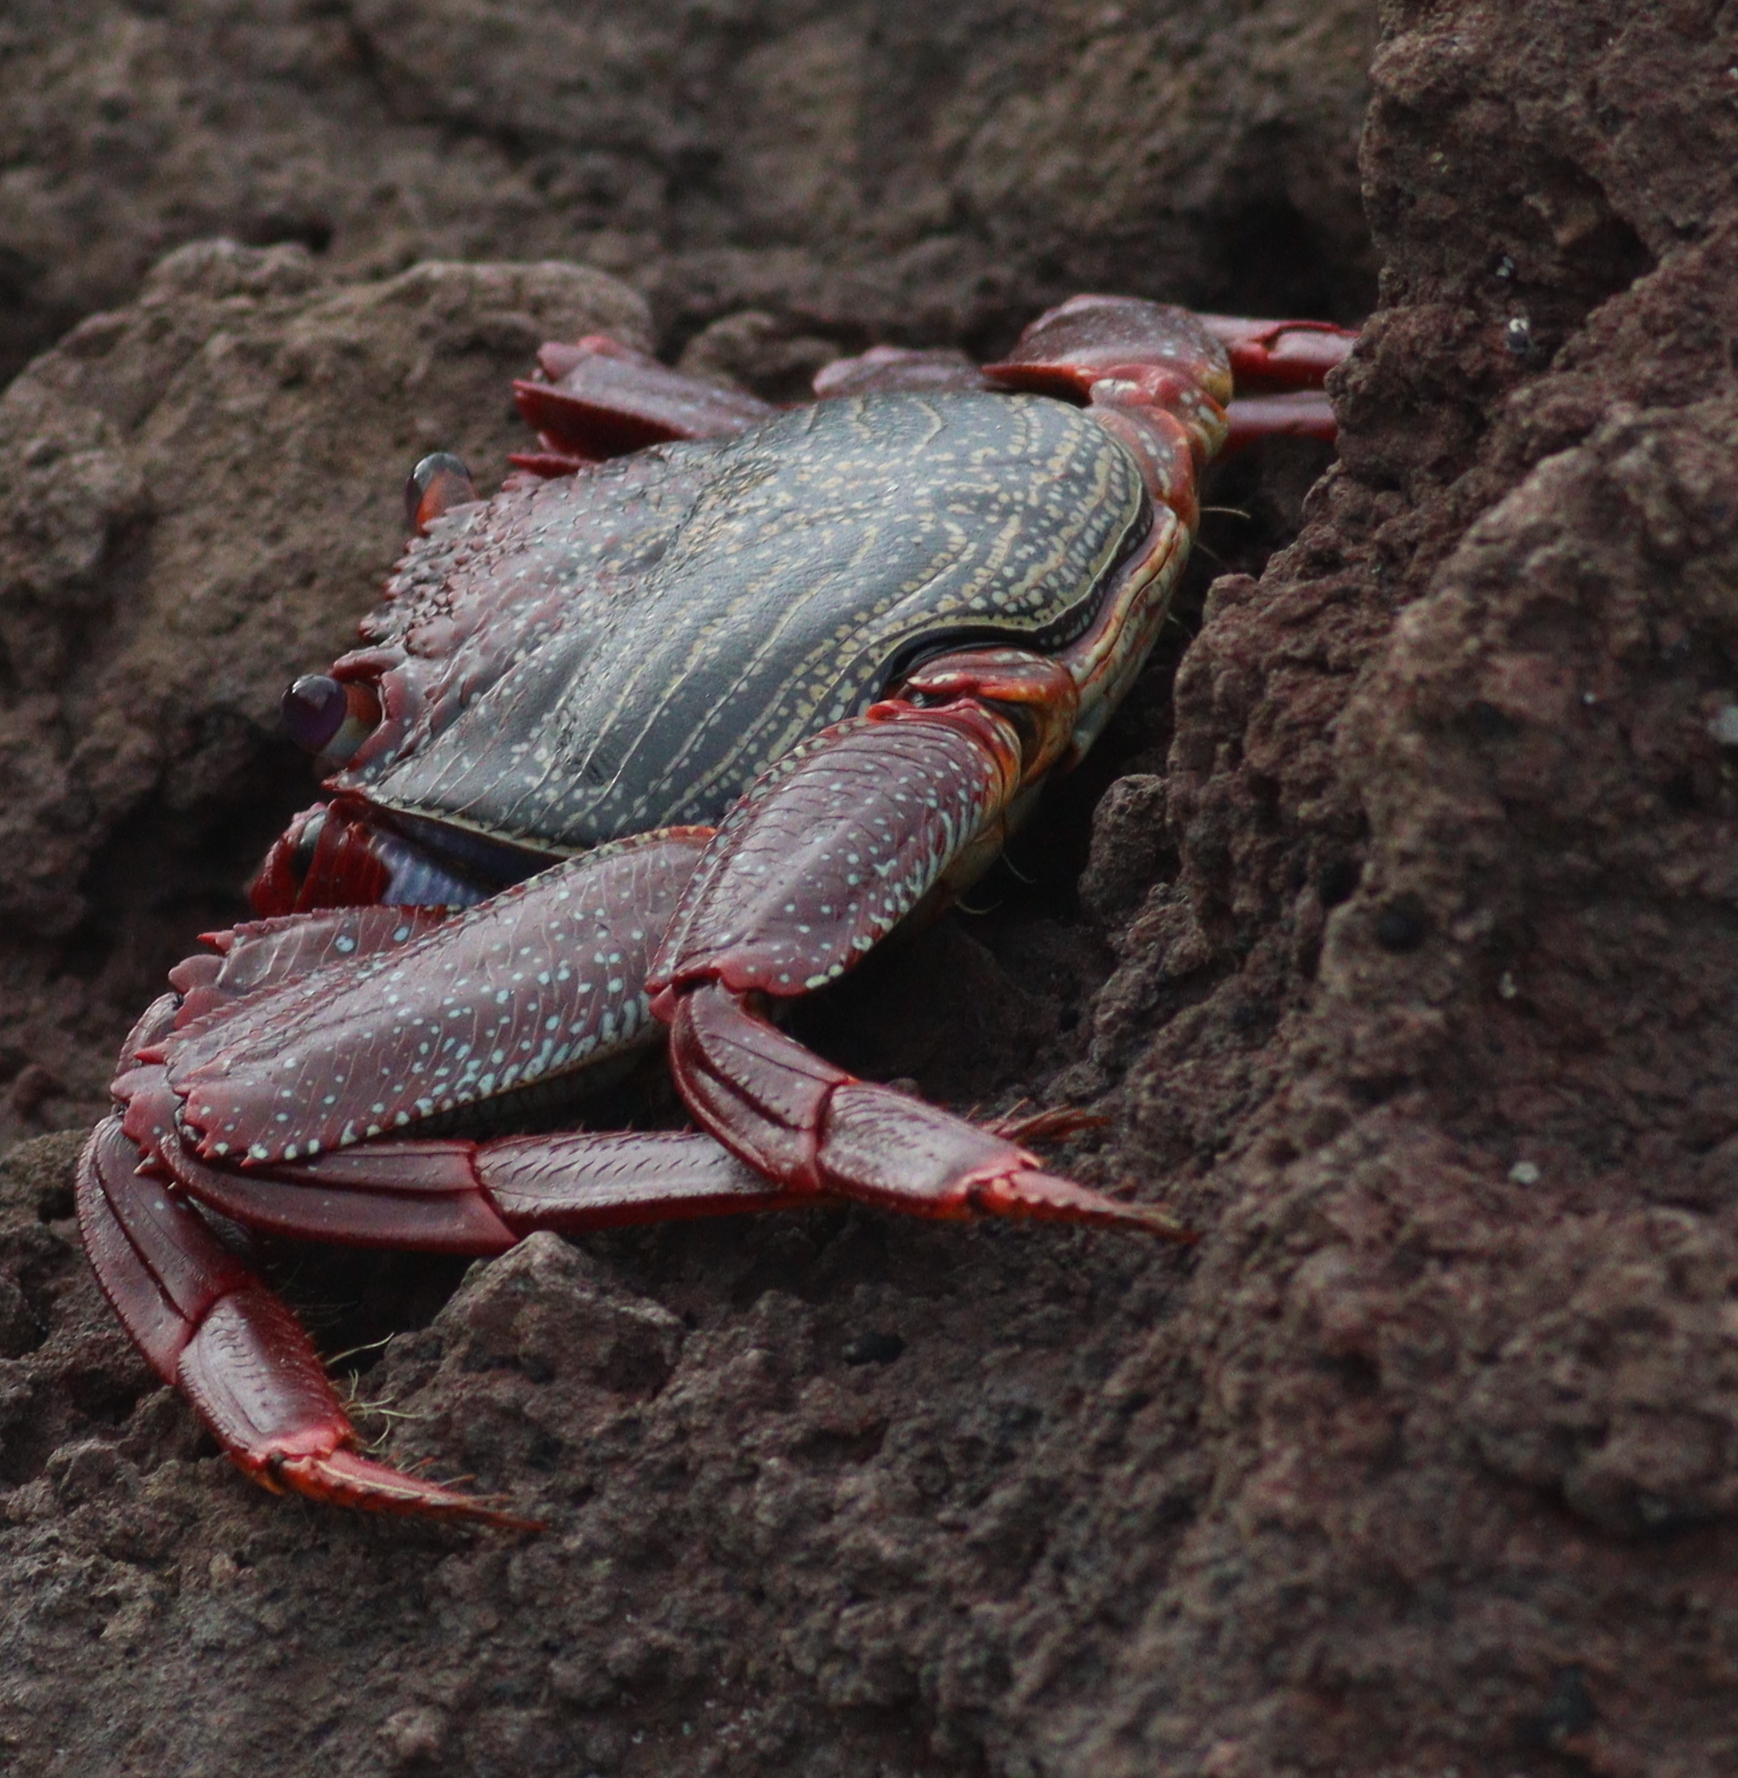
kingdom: Animalia
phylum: Arthropoda
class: Malacostraca
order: Decapoda
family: Grapsidae
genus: Grapsus
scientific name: Grapsus adscensionis
